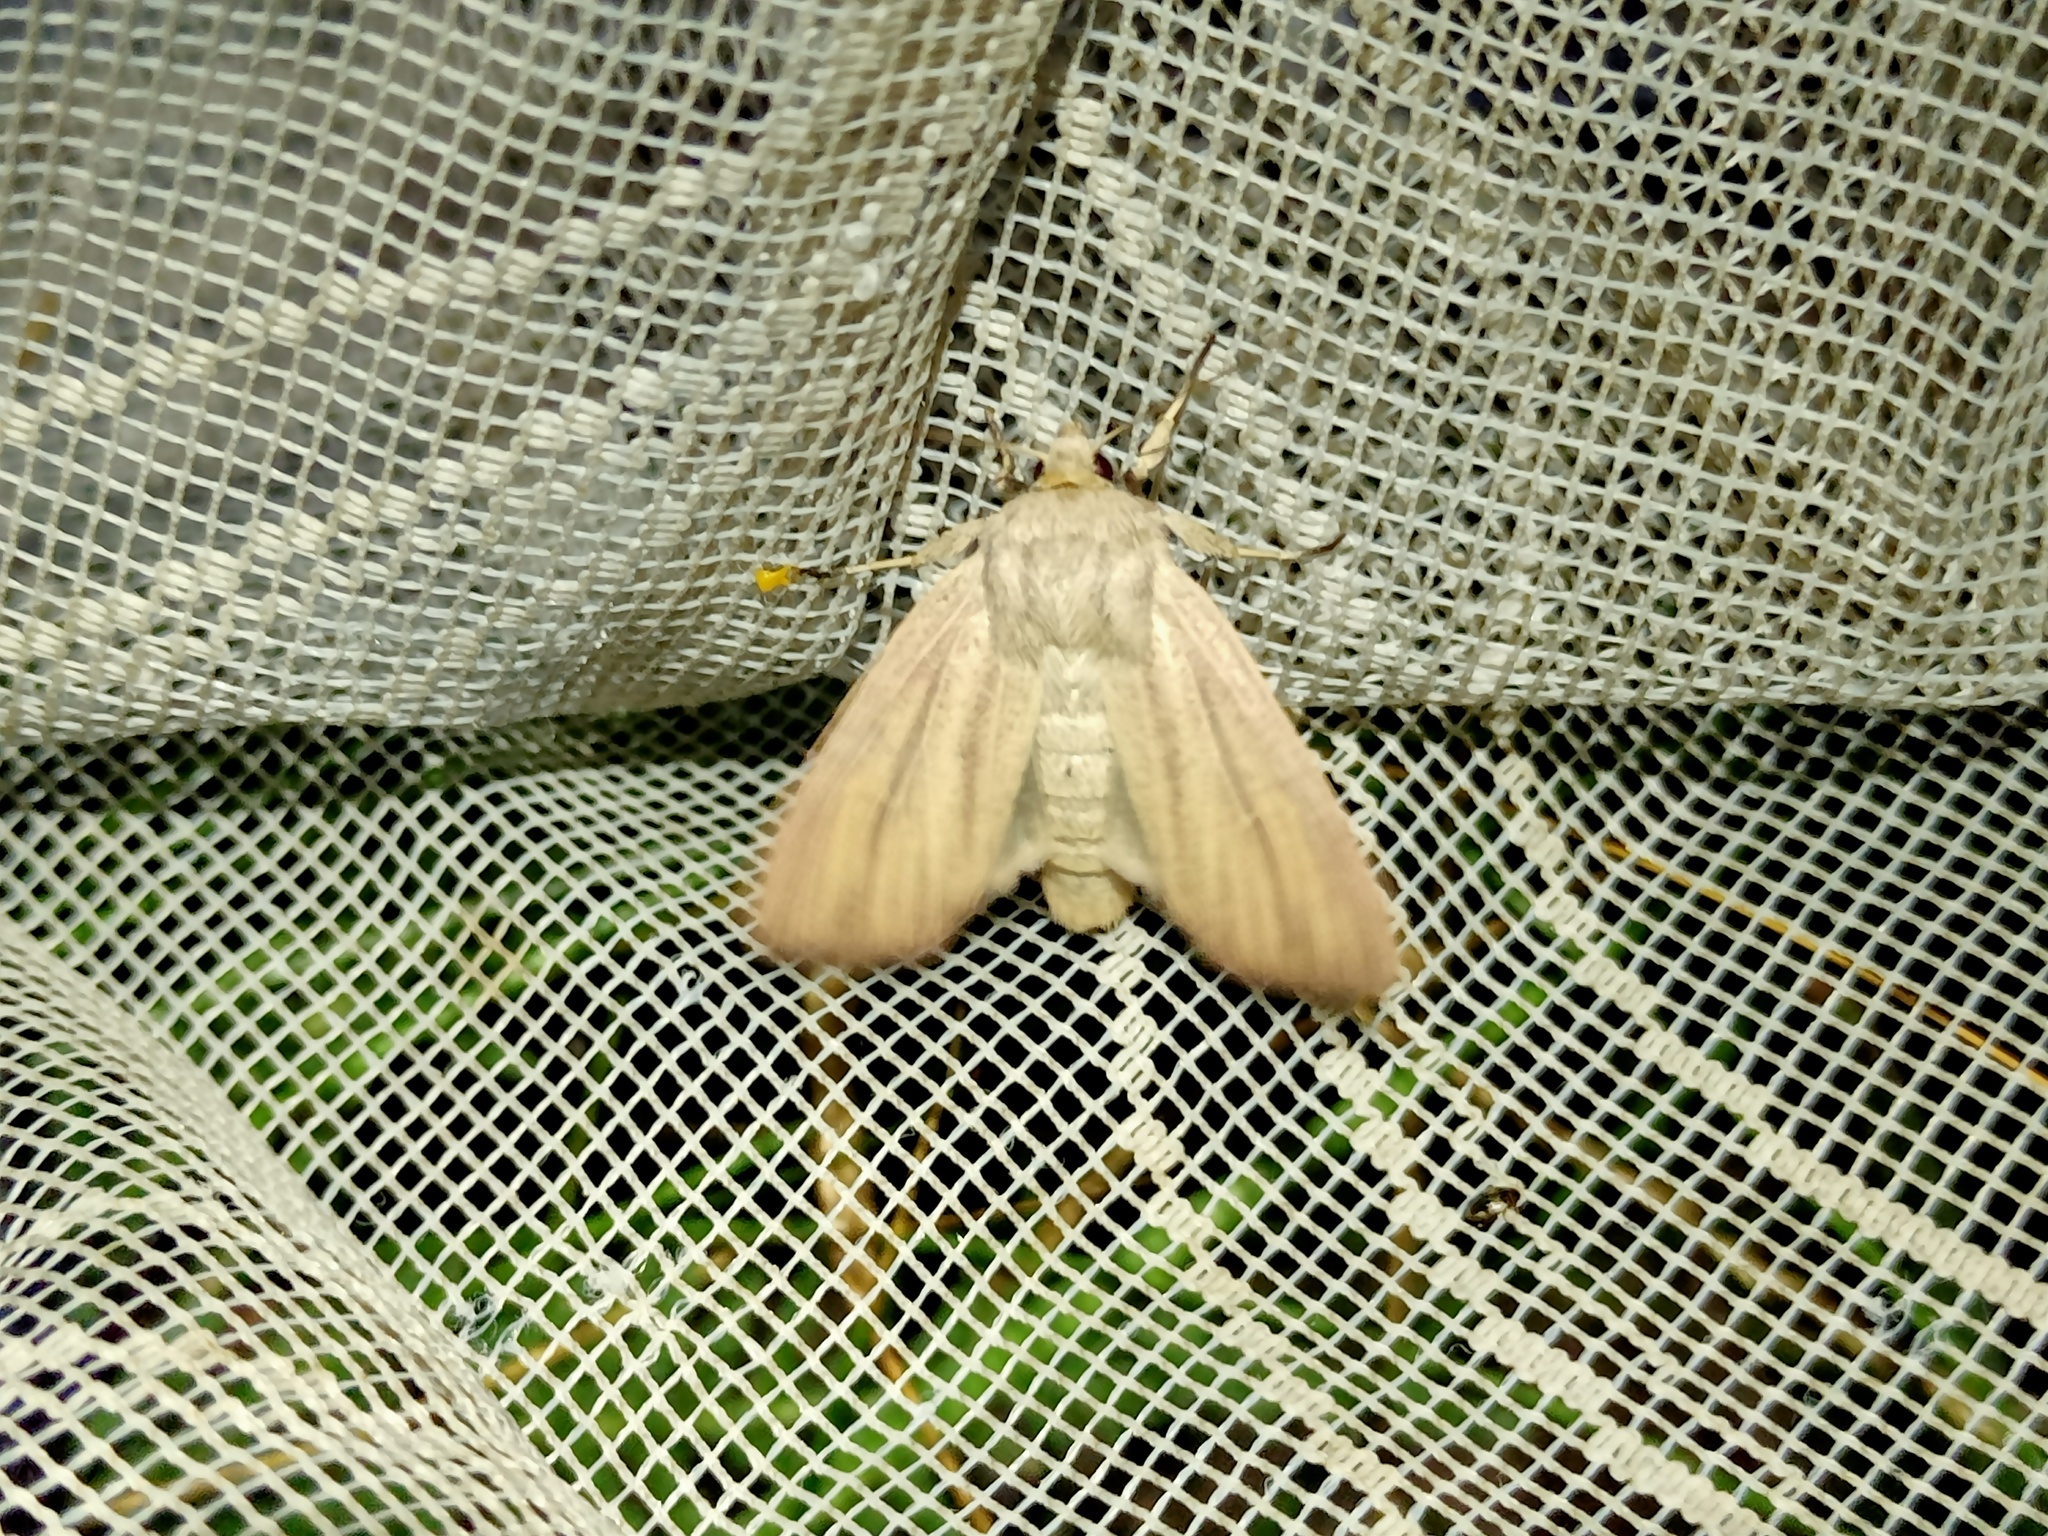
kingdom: Animalia
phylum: Arthropoda
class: Insecta
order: Lepidoptera
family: Noctuidae
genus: Mythimna
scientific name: Mythimna pudorina
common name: Striped wainscot
